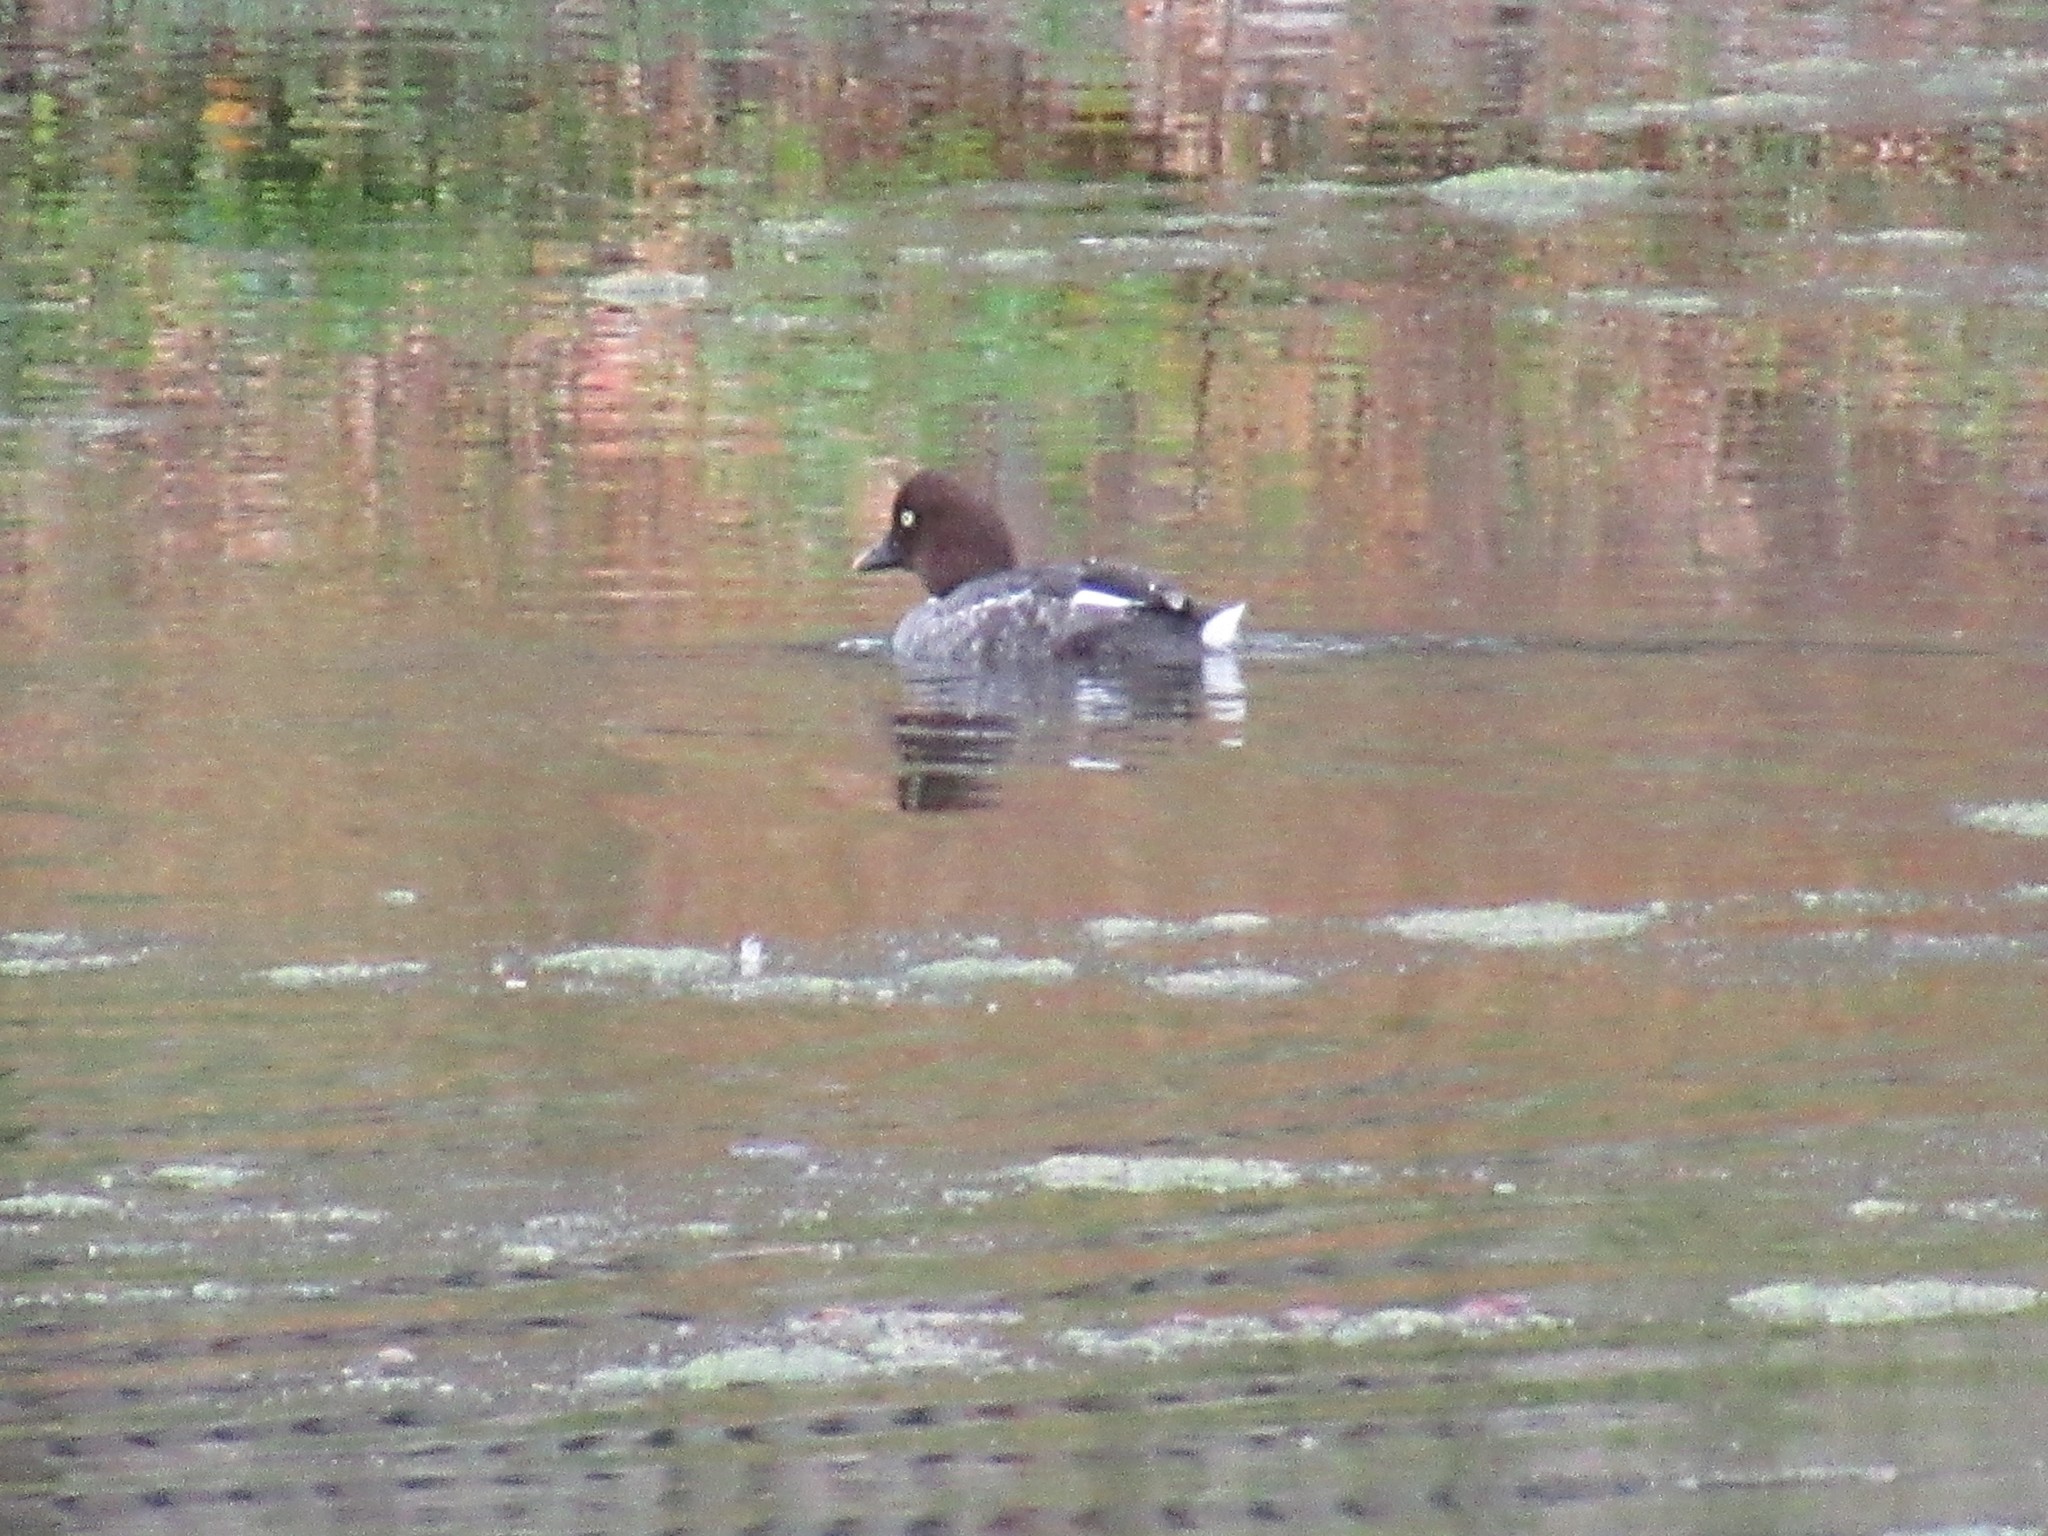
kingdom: Animalia
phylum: Chordata
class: Aves
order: Anseriformes
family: Anatidae
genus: Bucephala
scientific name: Bucephala clangula
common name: Common goldeneye
